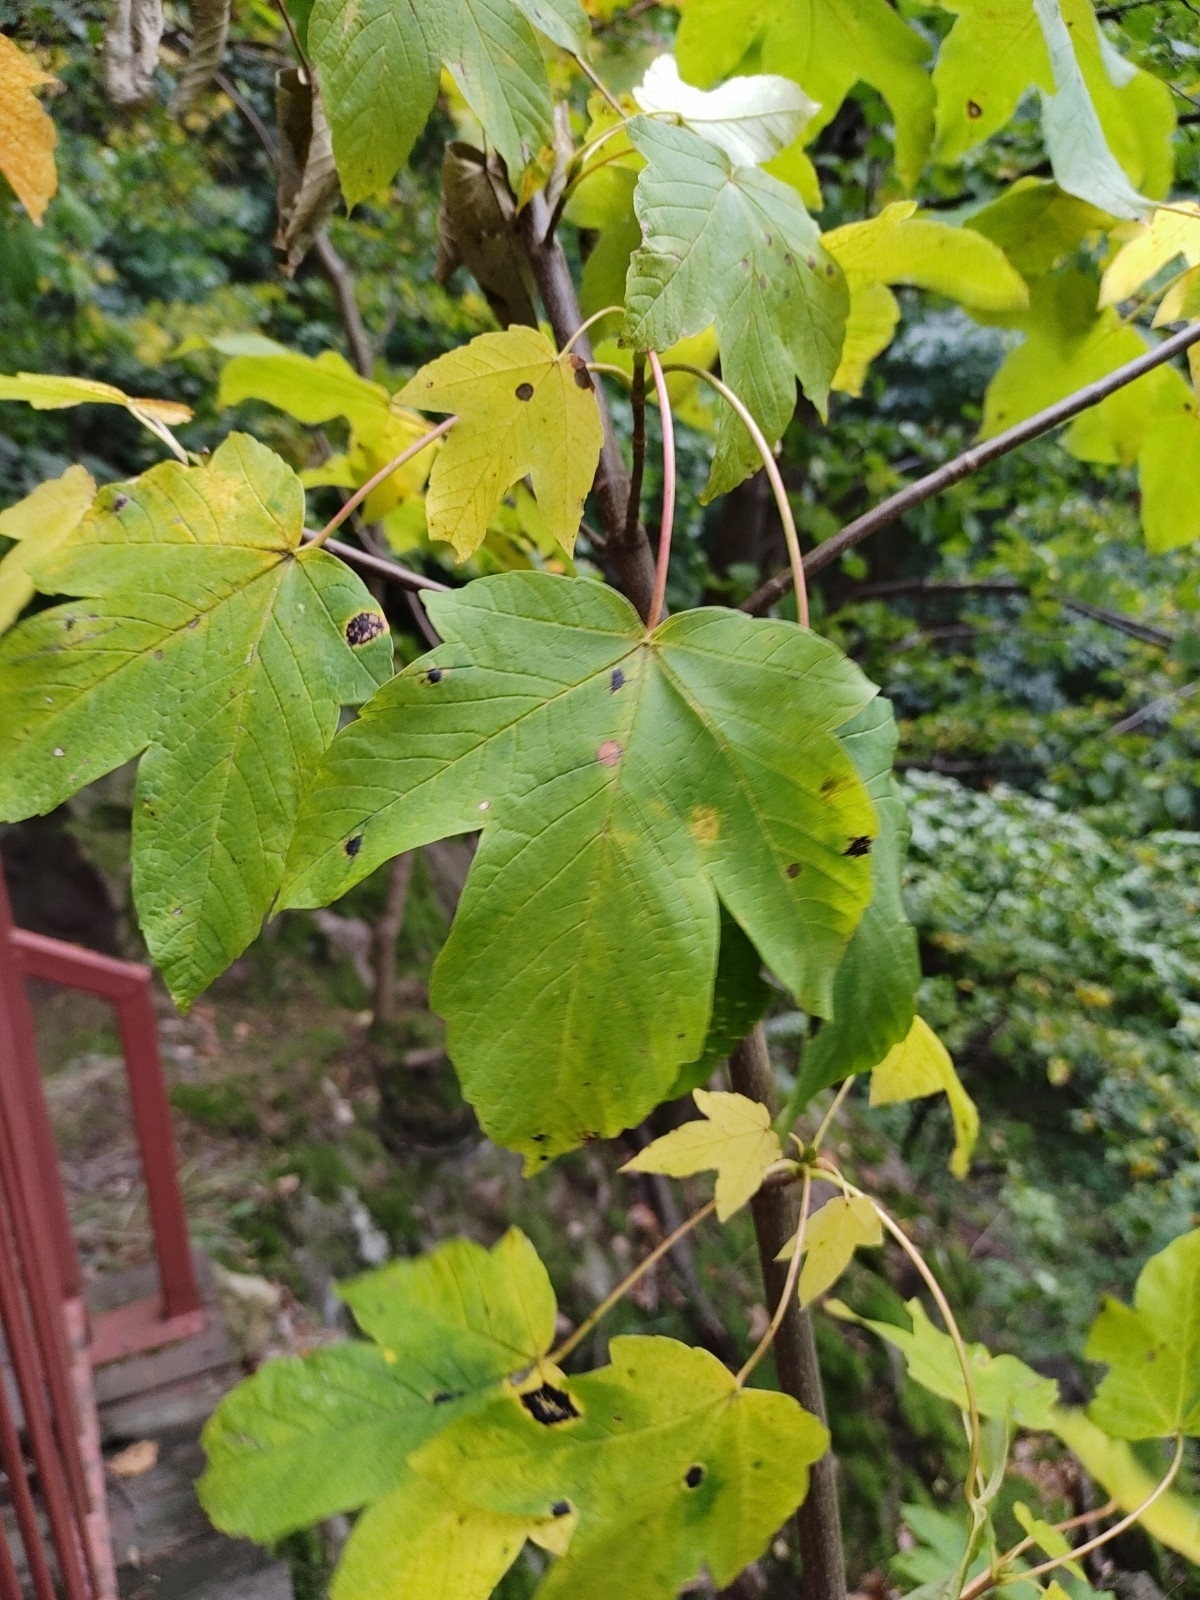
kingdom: Plantae
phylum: Tracheophyta
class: Magnoliopsida
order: Sapindales
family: Sapindaceae
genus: Acer
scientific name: Acer pseudoplatanus
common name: Sycamore
